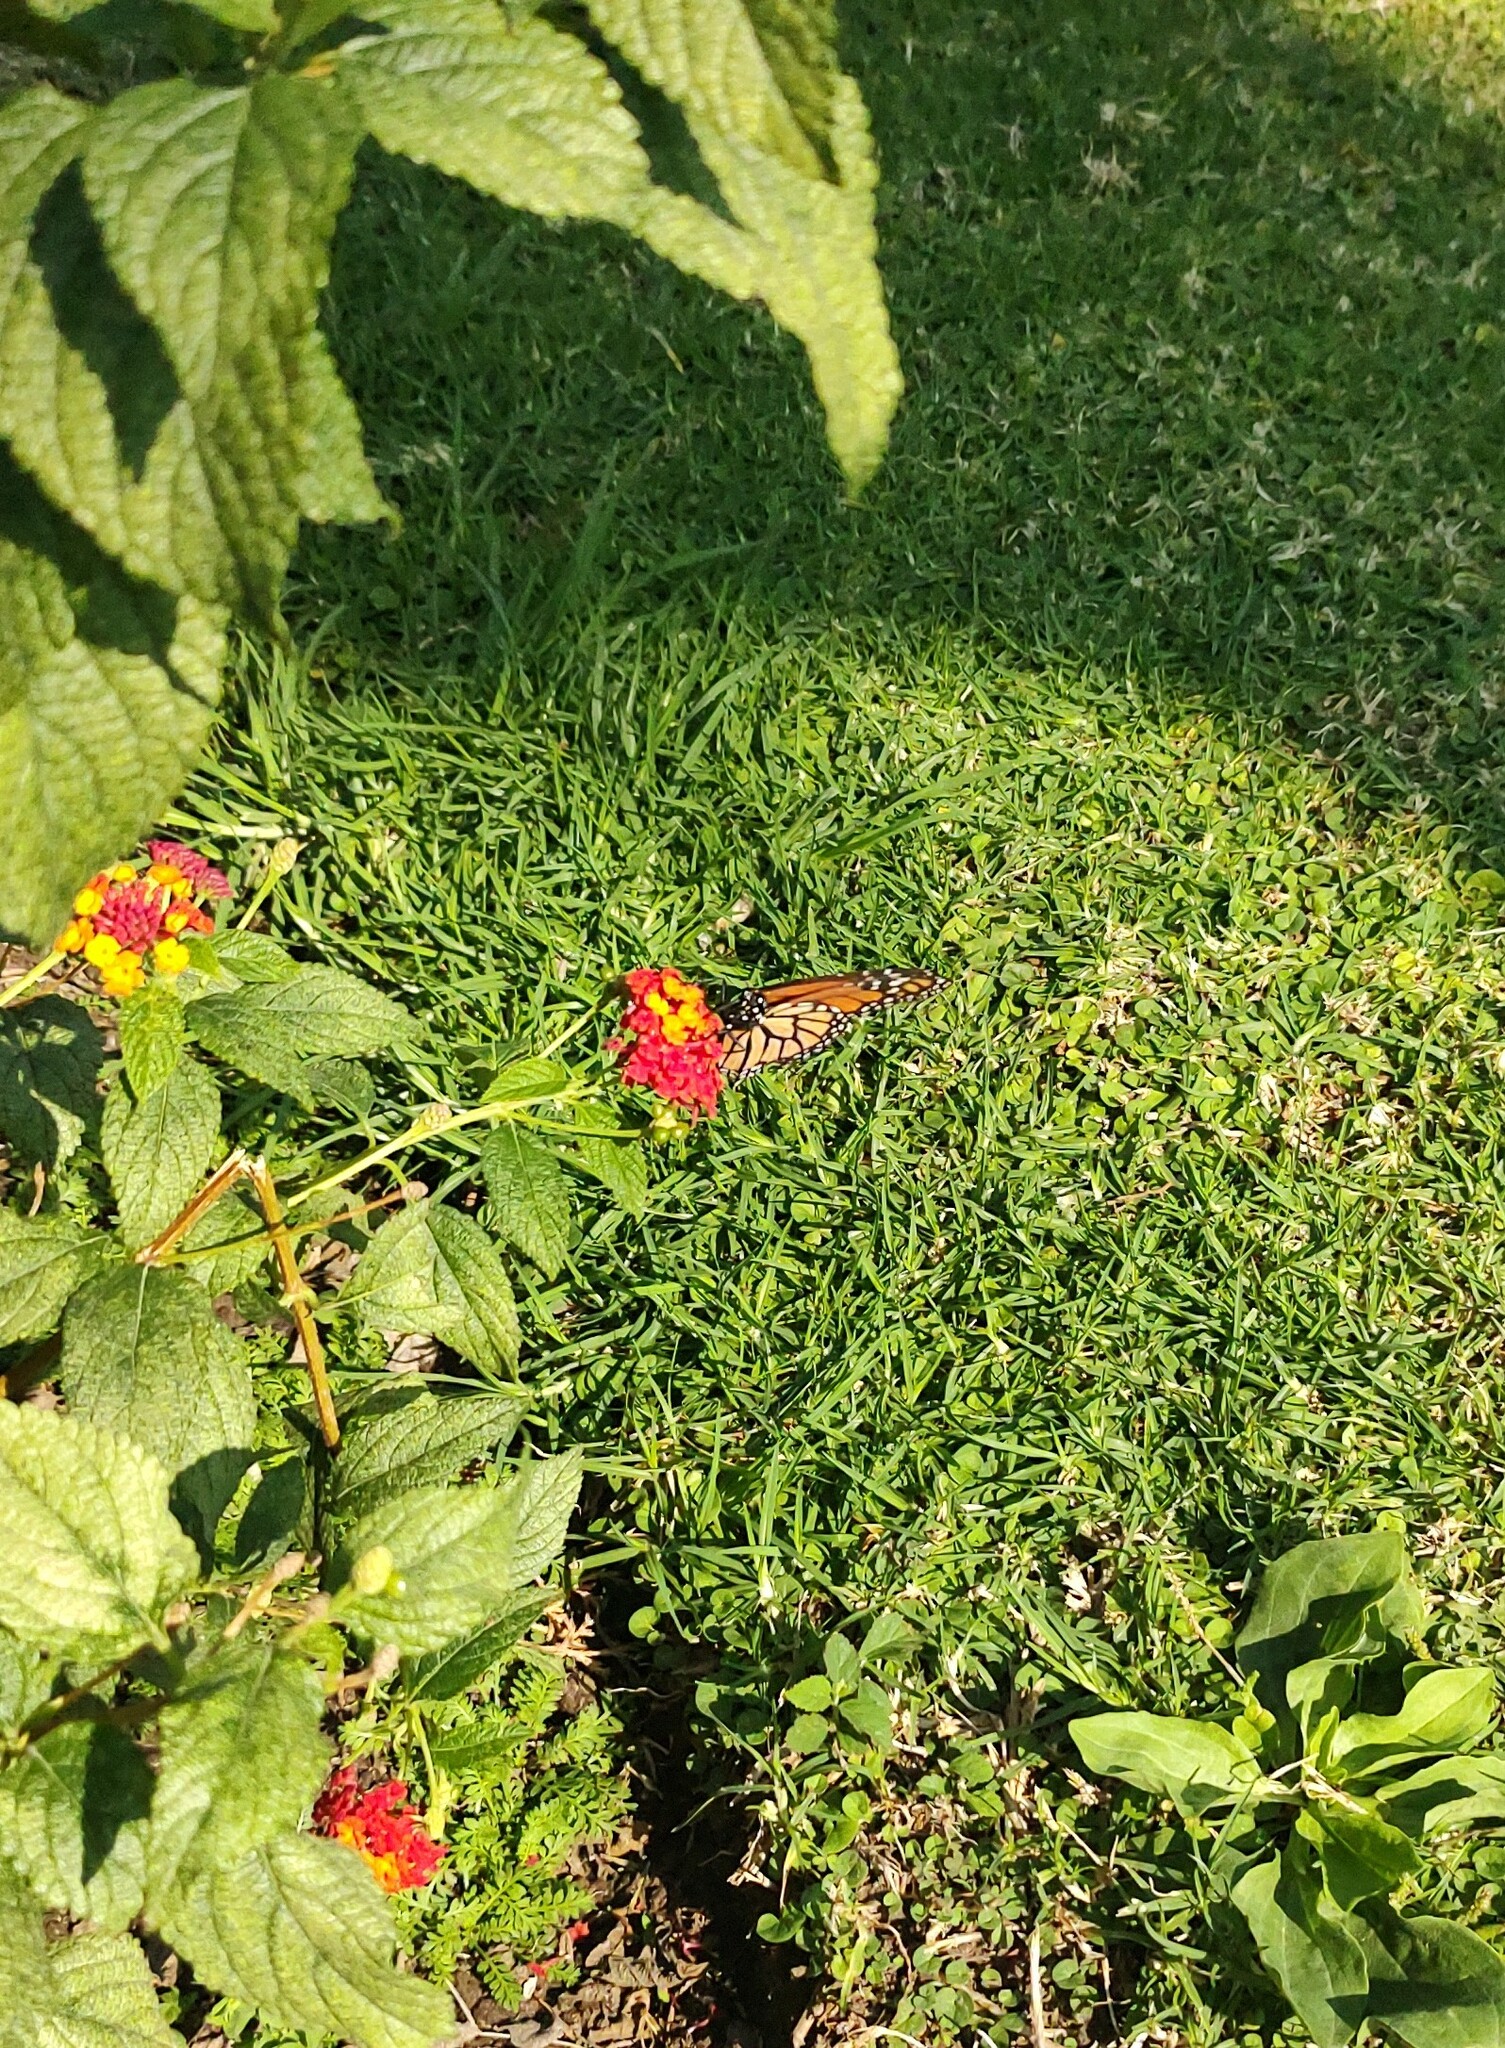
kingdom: Animalia
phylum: Arthropoda
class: Insecta
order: Lepidoptera
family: Nymphalidae
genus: Danaus
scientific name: Danaus plexippus
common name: Monarch
